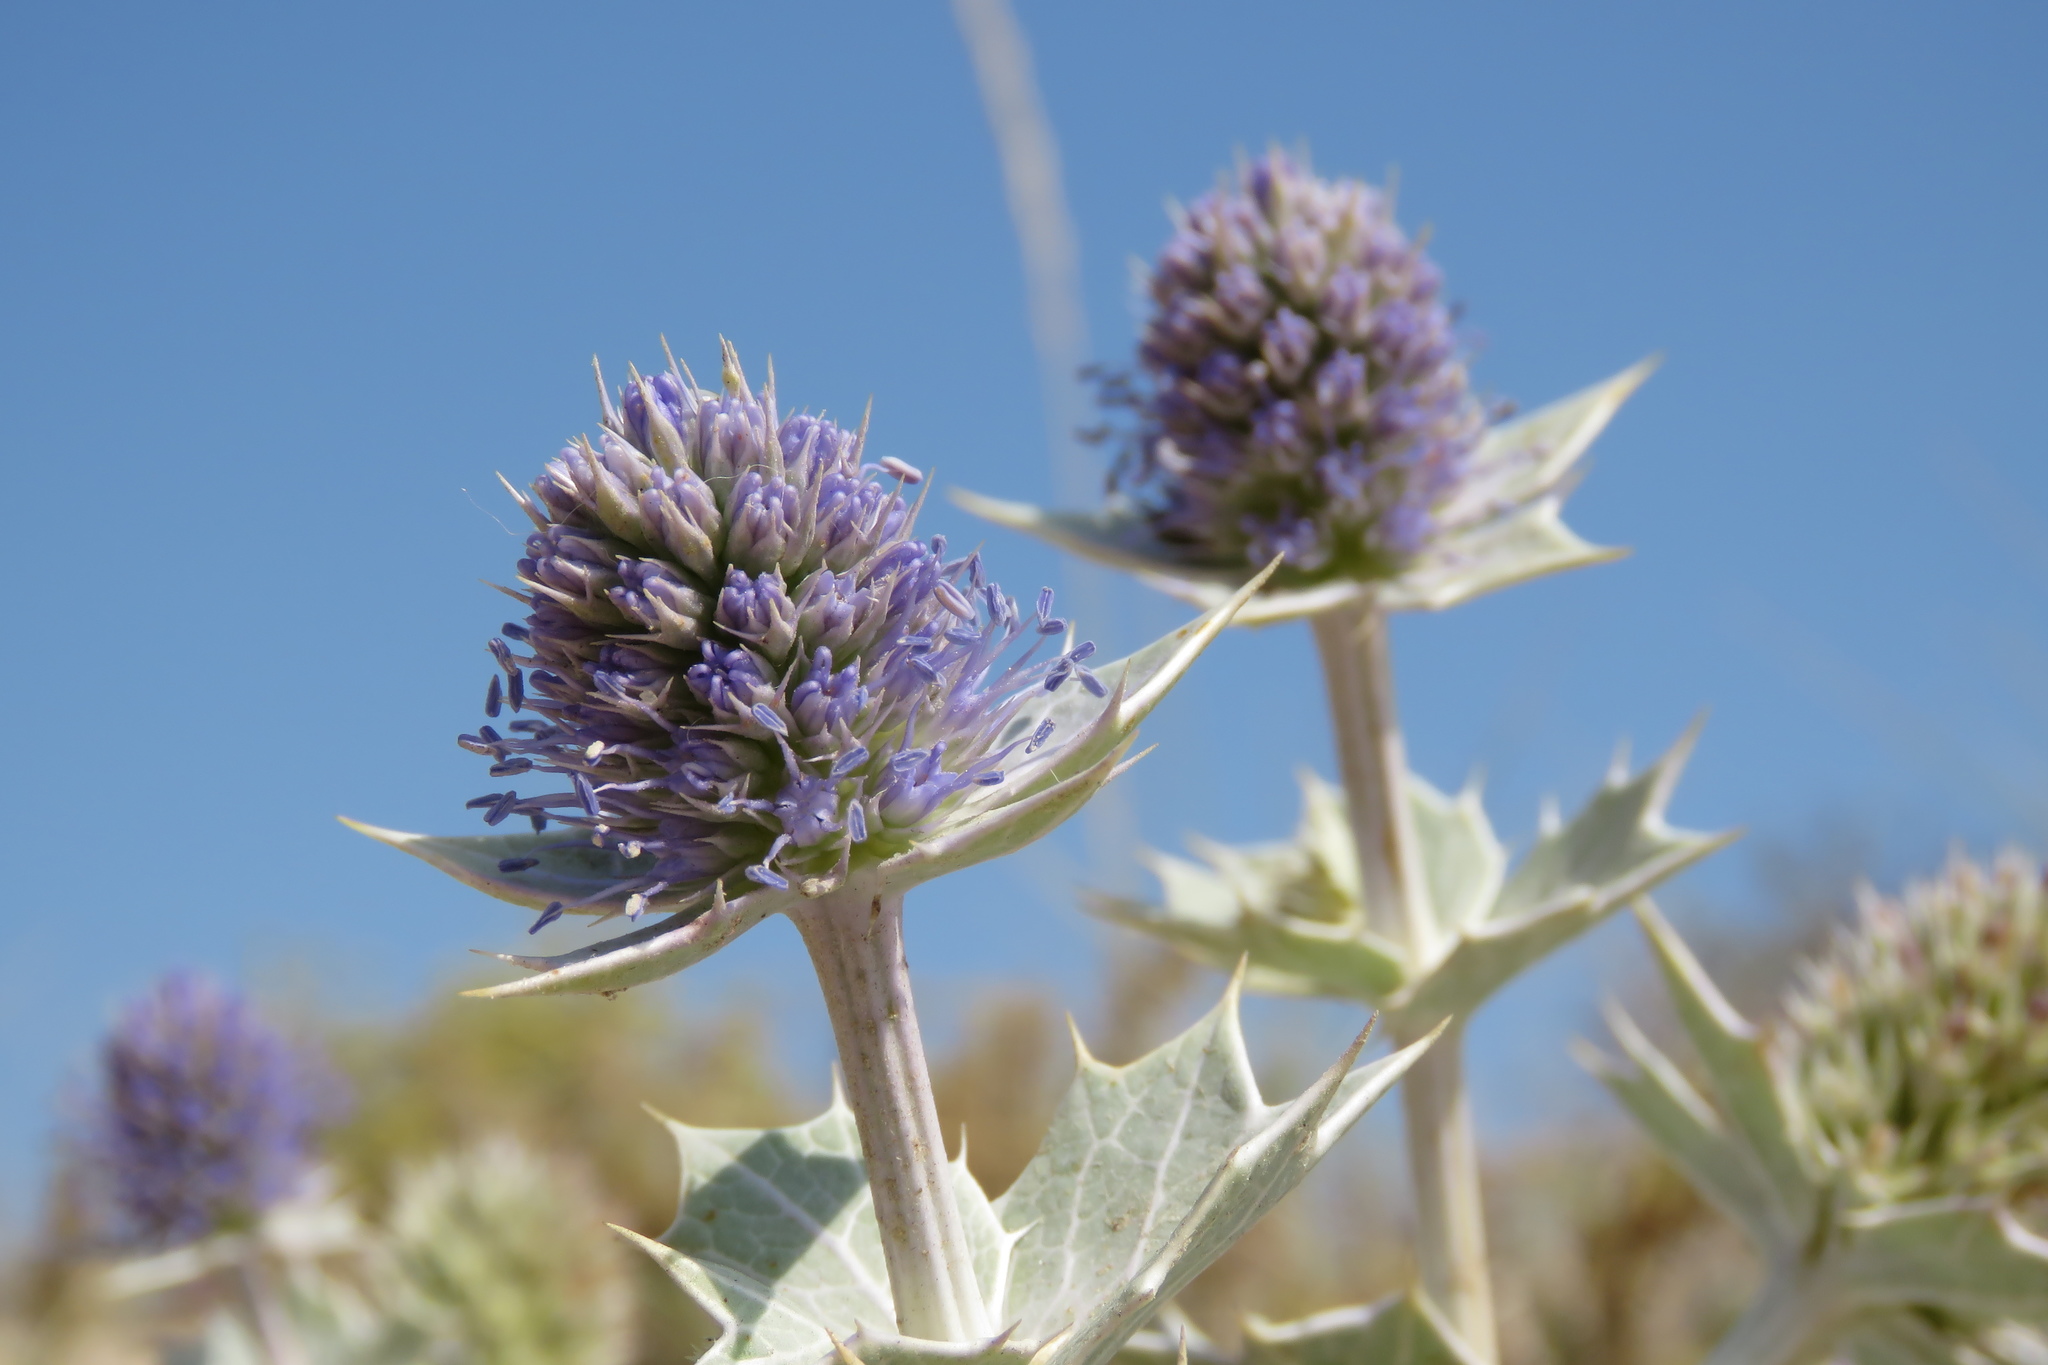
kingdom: Plantae
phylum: Tracheophyta
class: Magnoliopsida
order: Apiales
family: Apiaceae
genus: Eryngium
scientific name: Eryngium maritimum
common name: Sea-holly
